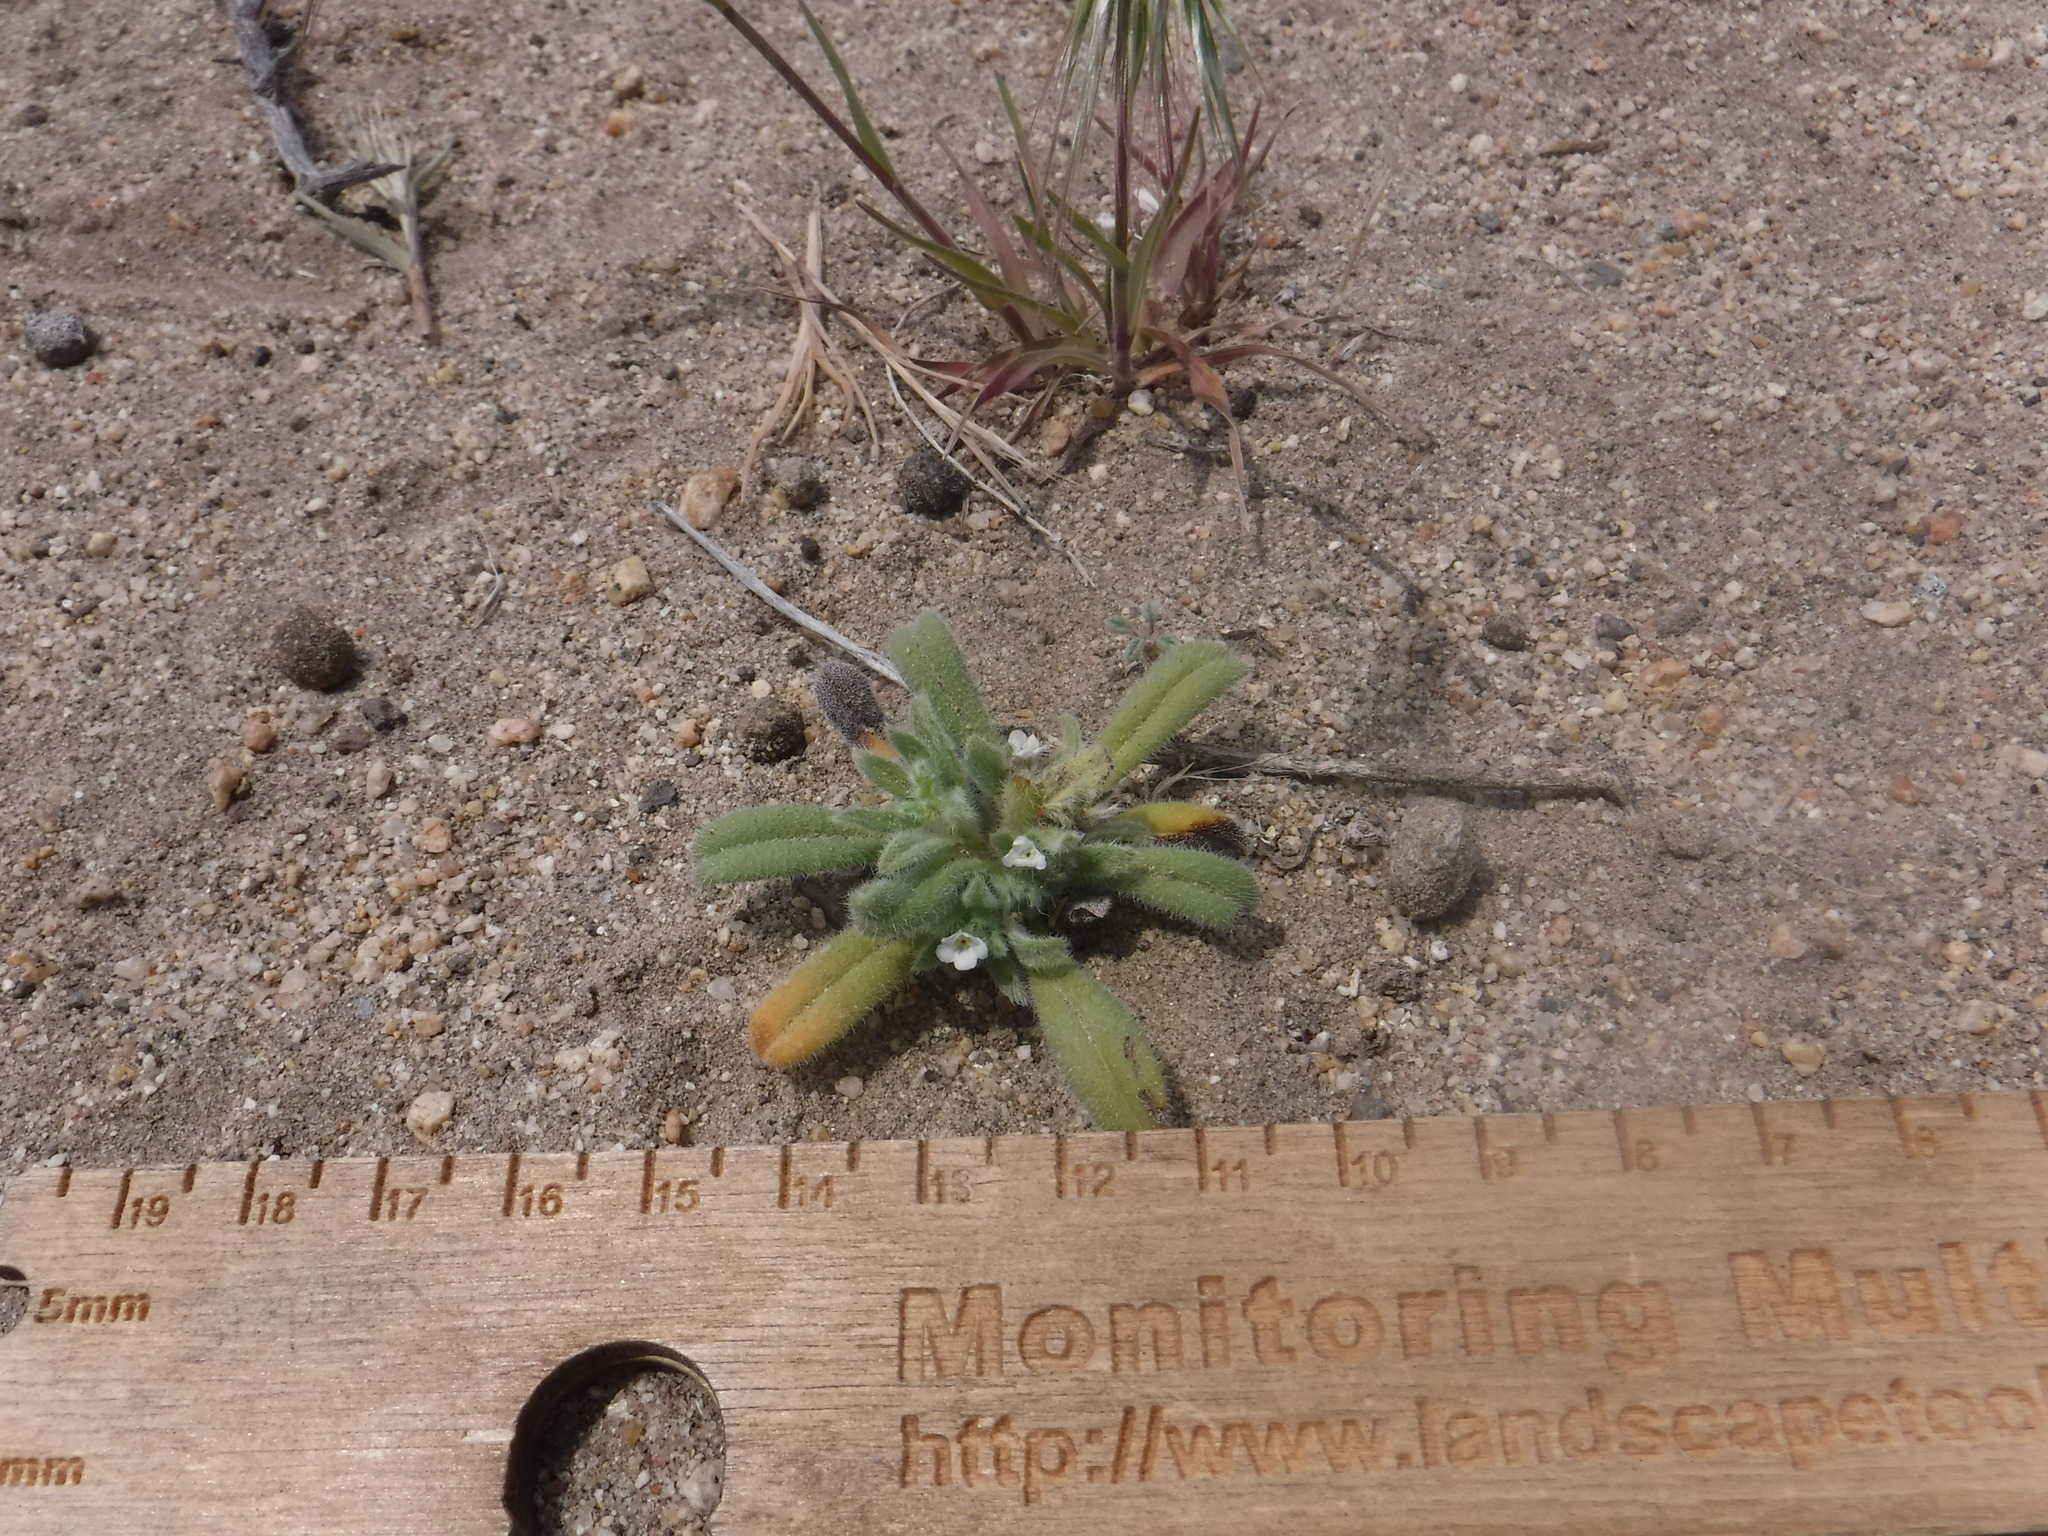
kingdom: Plantae
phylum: Tracheophyta
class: Magnoliopsida
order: Boraginales
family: Namaceae
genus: Nama
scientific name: Nama densa
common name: Leafy nama
